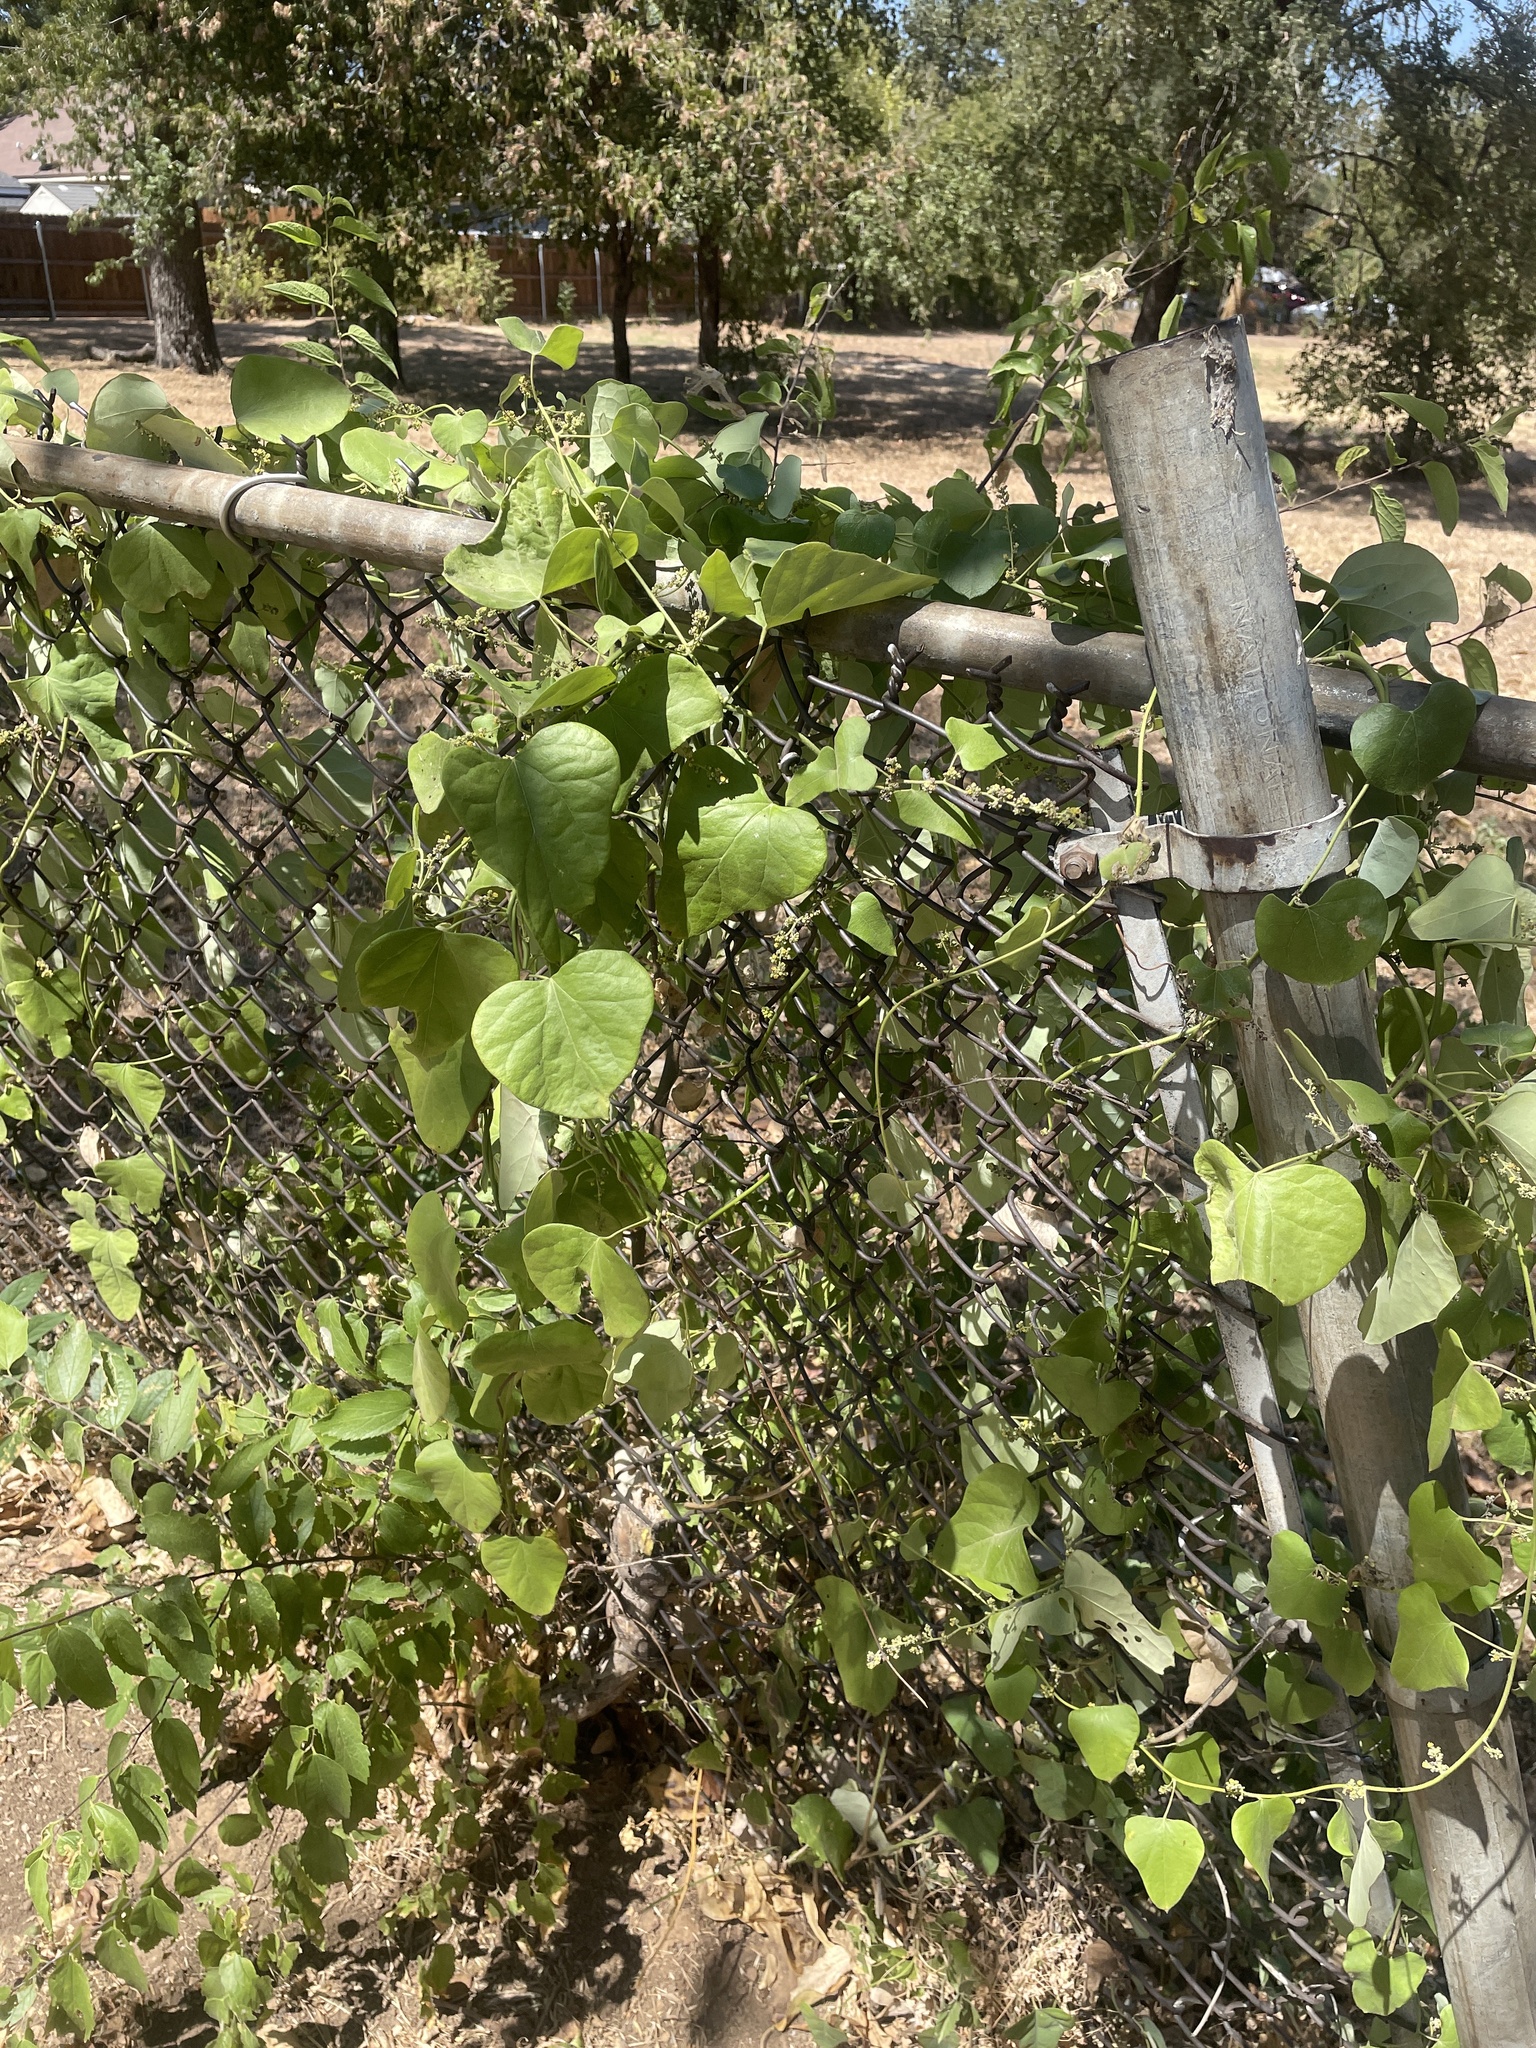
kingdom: Plantae
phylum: Tracheophyta
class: Magnoliopsida
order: Ranunculales
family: Menispermaceae
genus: Cocculus
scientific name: Cocculus carolinus
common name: Carolina moonseed
